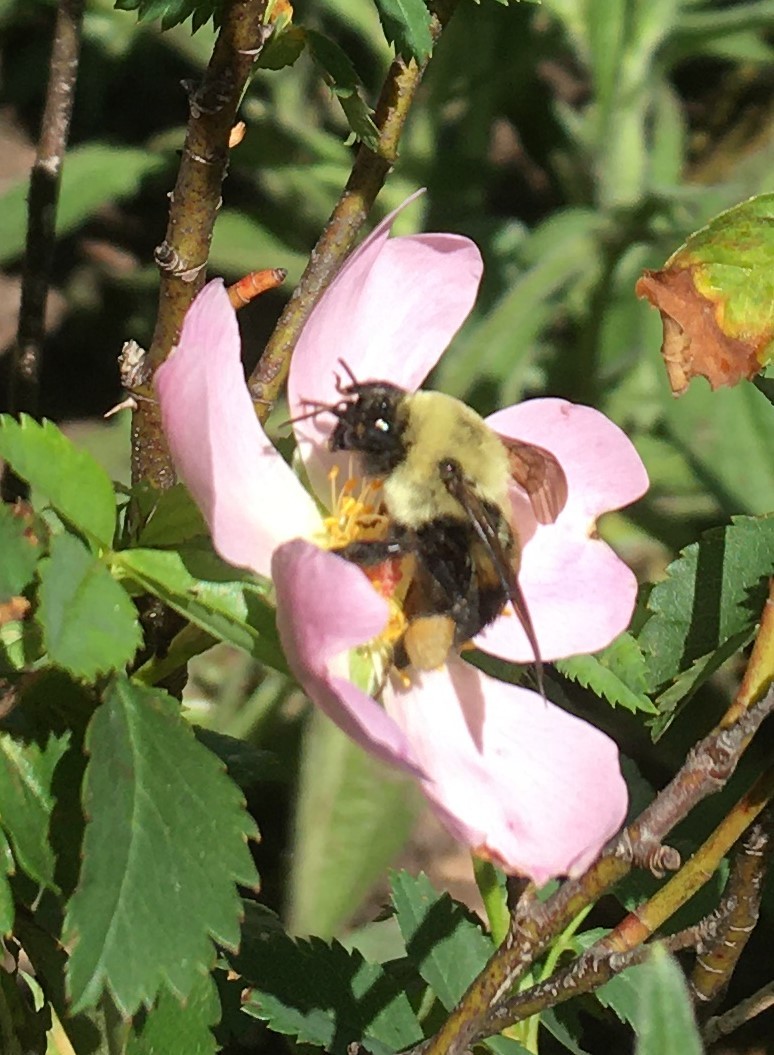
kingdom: Animalia
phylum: Arthropoda
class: Insecta
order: Hymenoptera
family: Apidae
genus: Bombus
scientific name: Bombus griseocollis
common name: Brown-belted bumble bee
